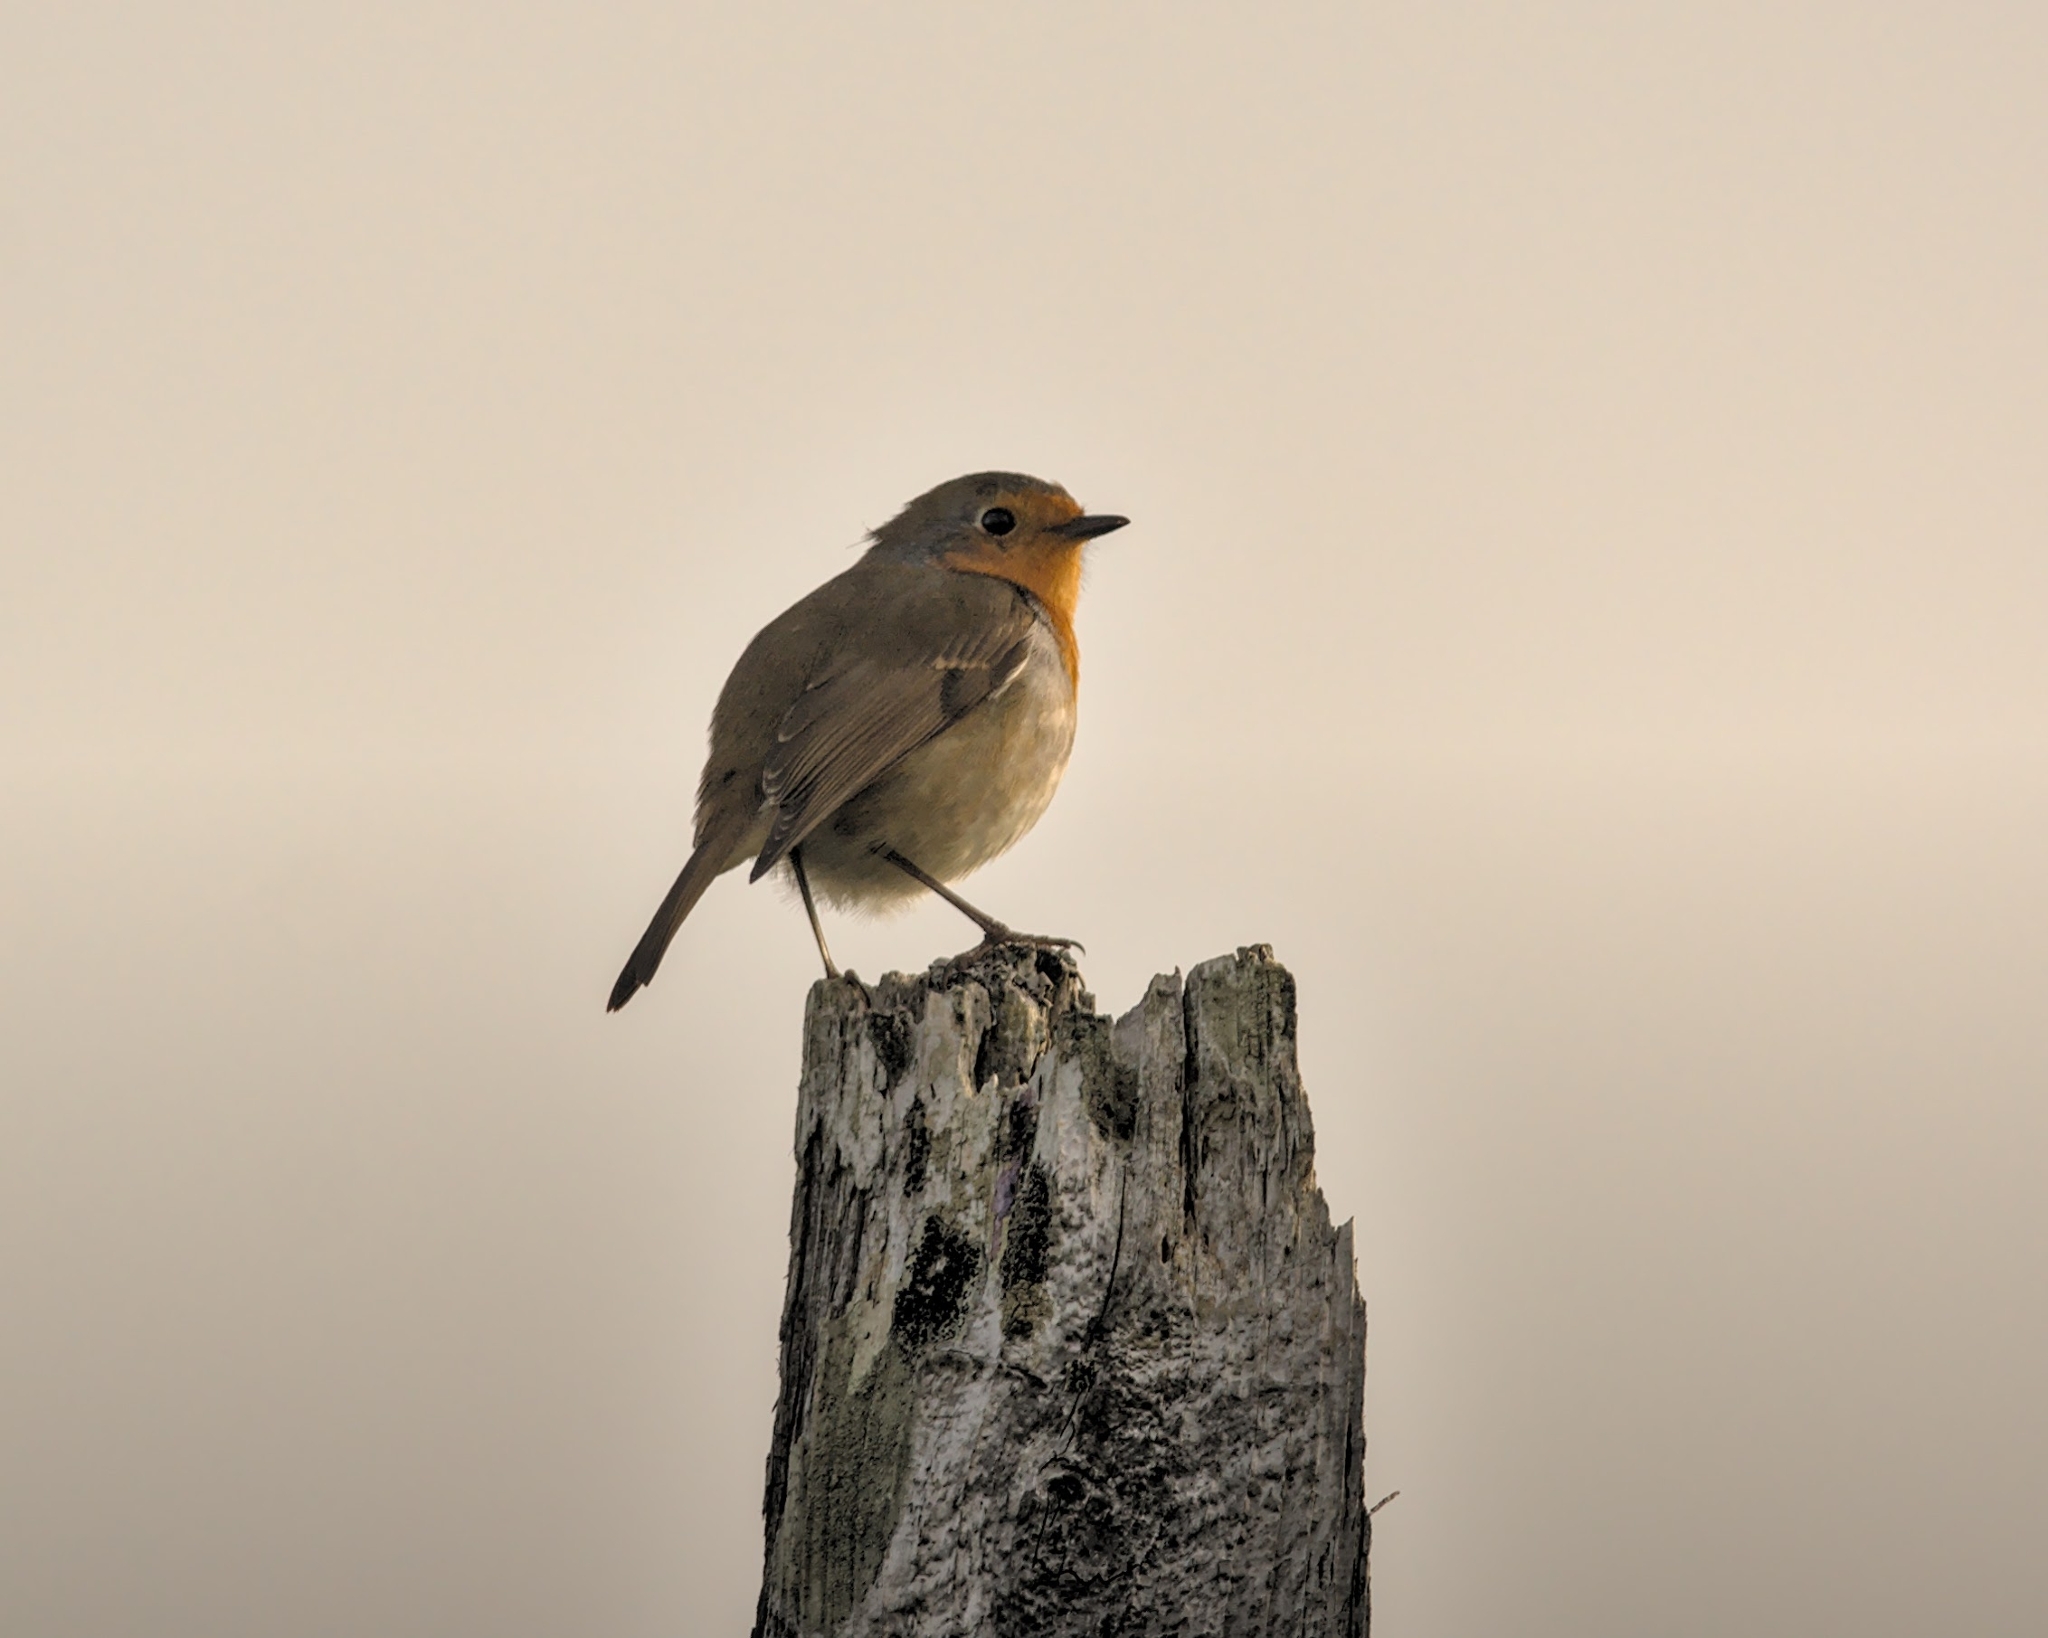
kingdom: Animalia
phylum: Chordata
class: Aves
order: Passeriformes
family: Muscicapidae
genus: Erithacus
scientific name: Erithacus rubecula
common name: European robin
